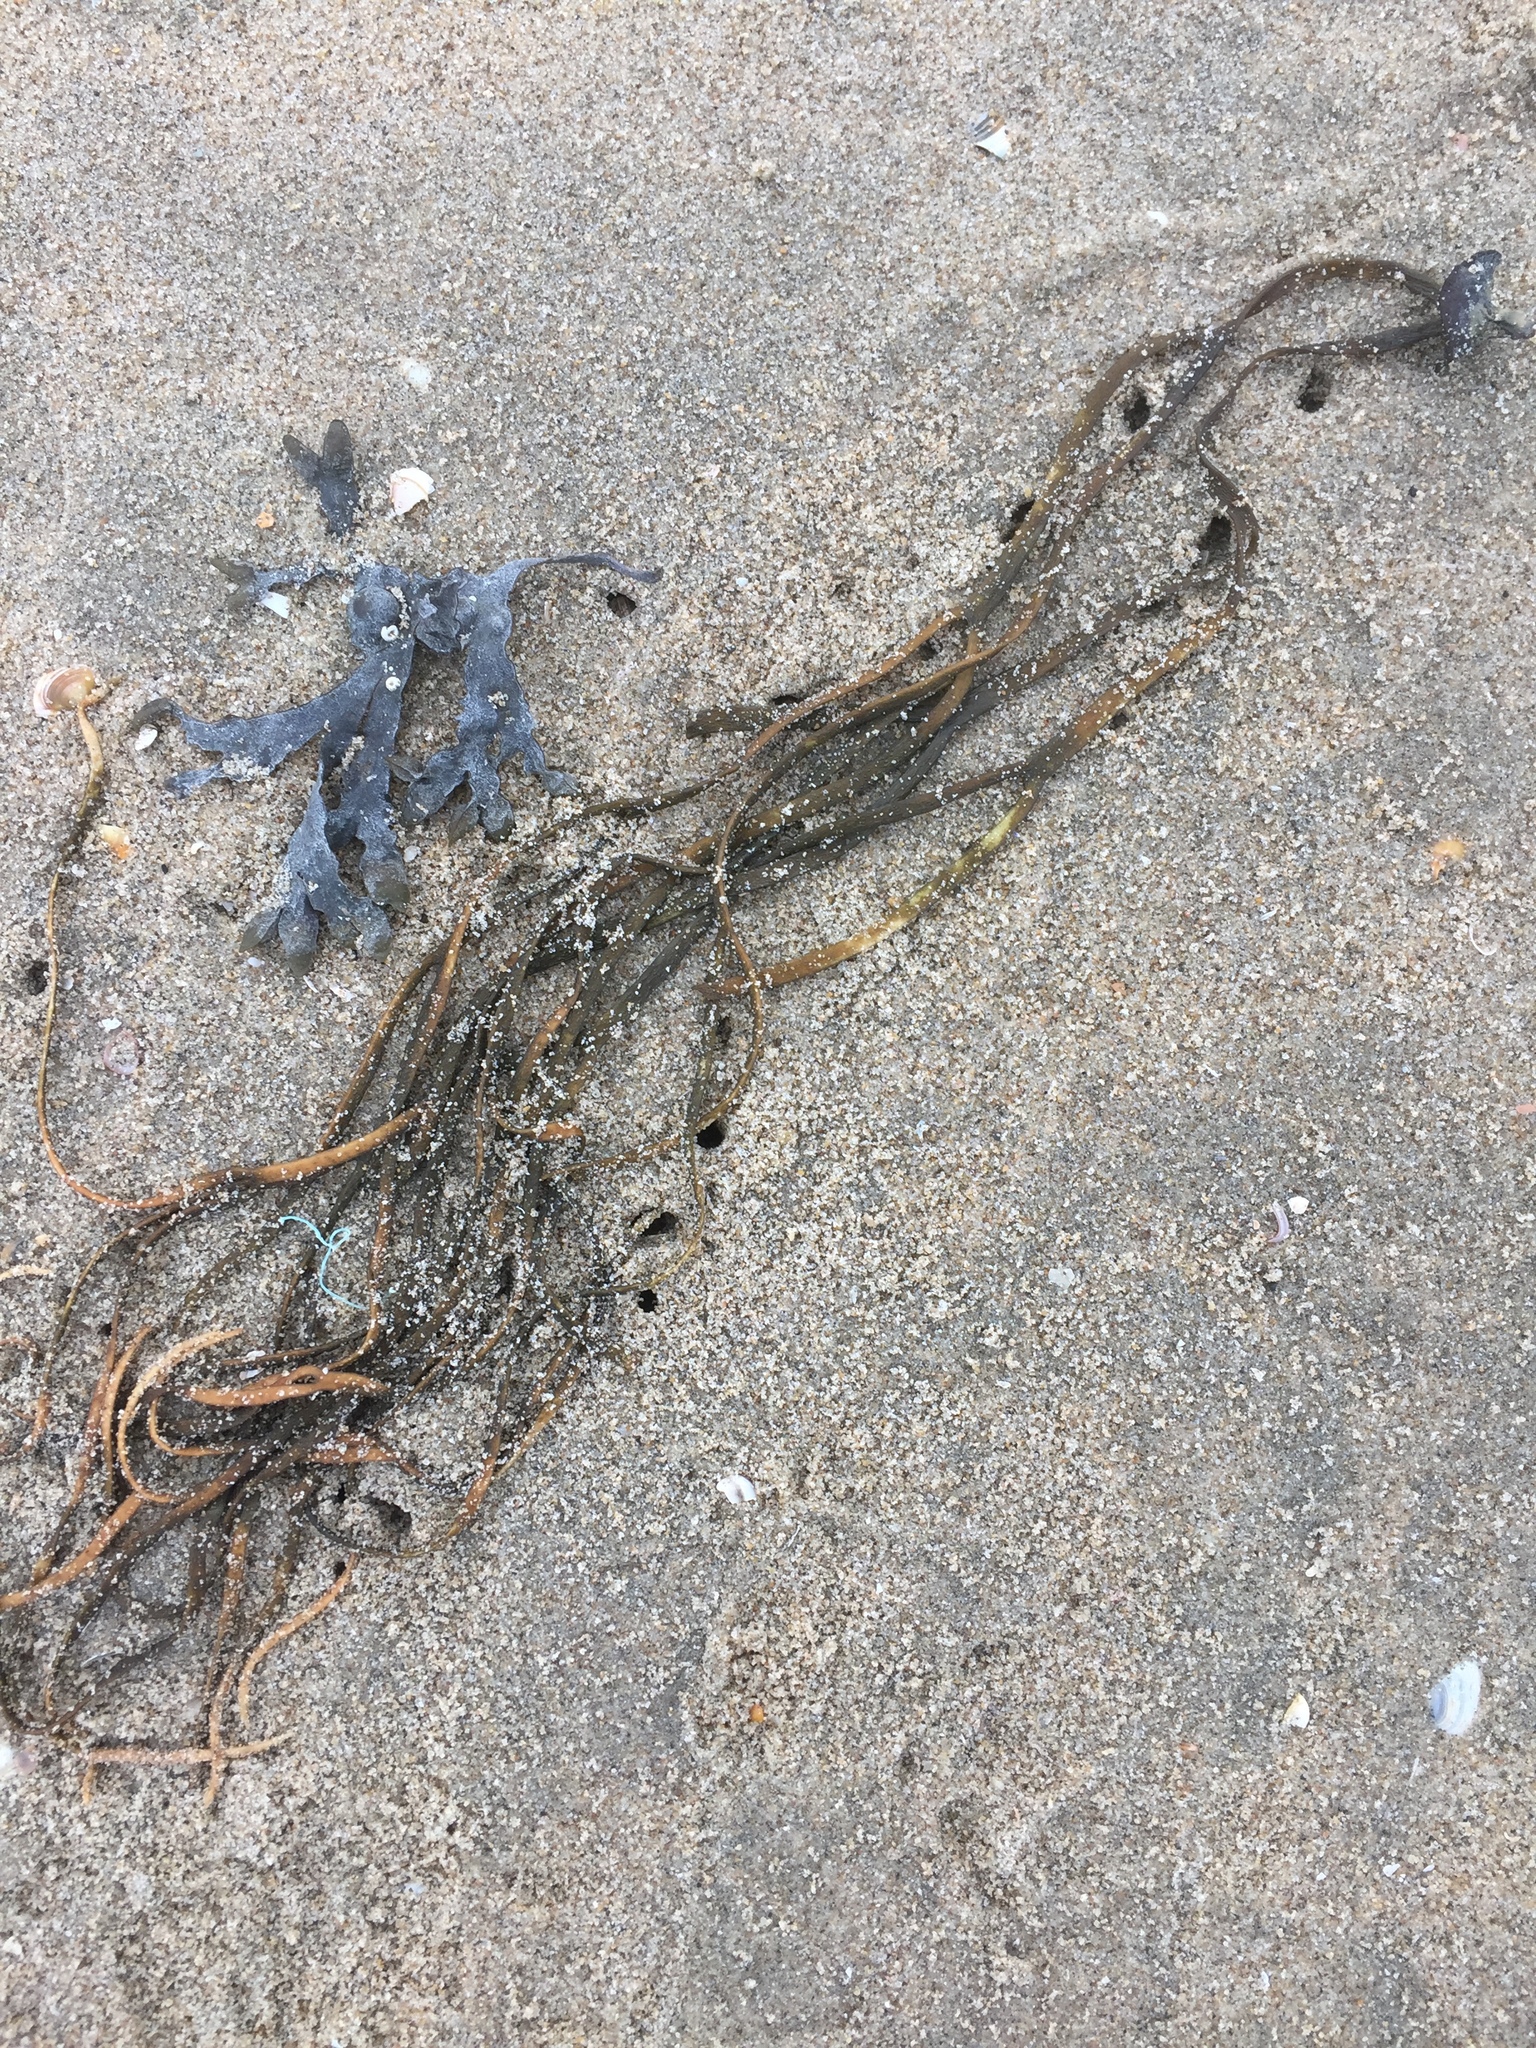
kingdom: Chromista
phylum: Ochrophyta
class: Phaeophyceae
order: Fucales
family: Himanthaliaceae
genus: Himanthalia
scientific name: Himanthalia elongata
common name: Sea-thong
